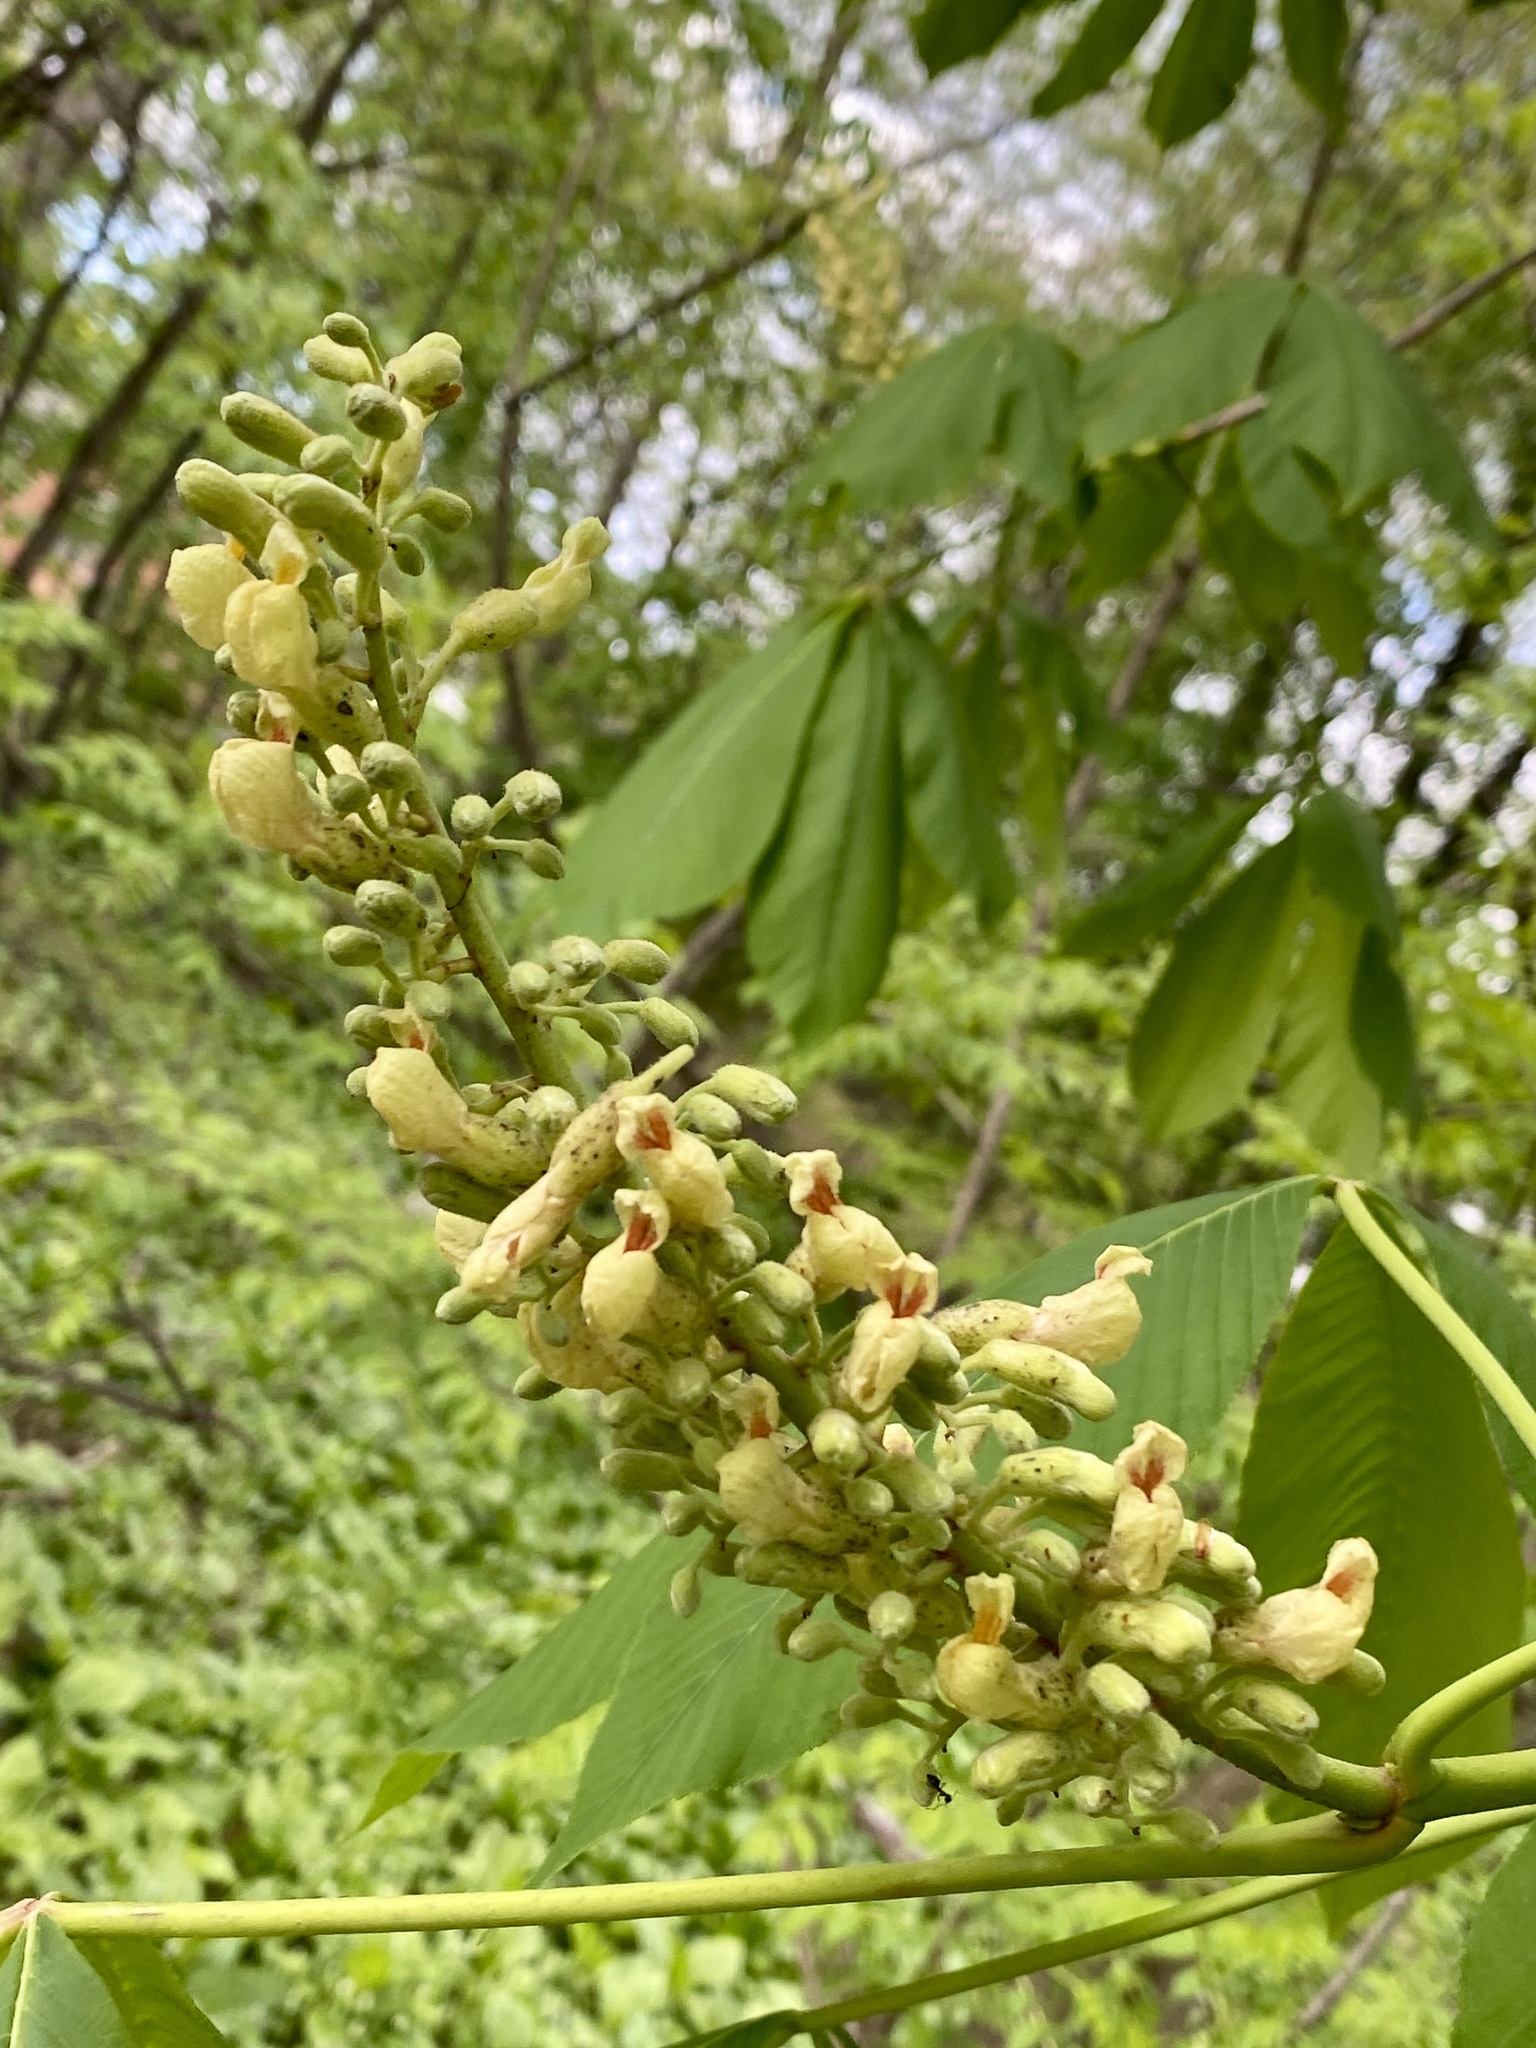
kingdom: Plantae
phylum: Tracheophyta
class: Magnoliopsida
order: Sapindales
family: Sapindaceae
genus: Aesculus
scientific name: Aesculus flava
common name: Yellow buckeye
